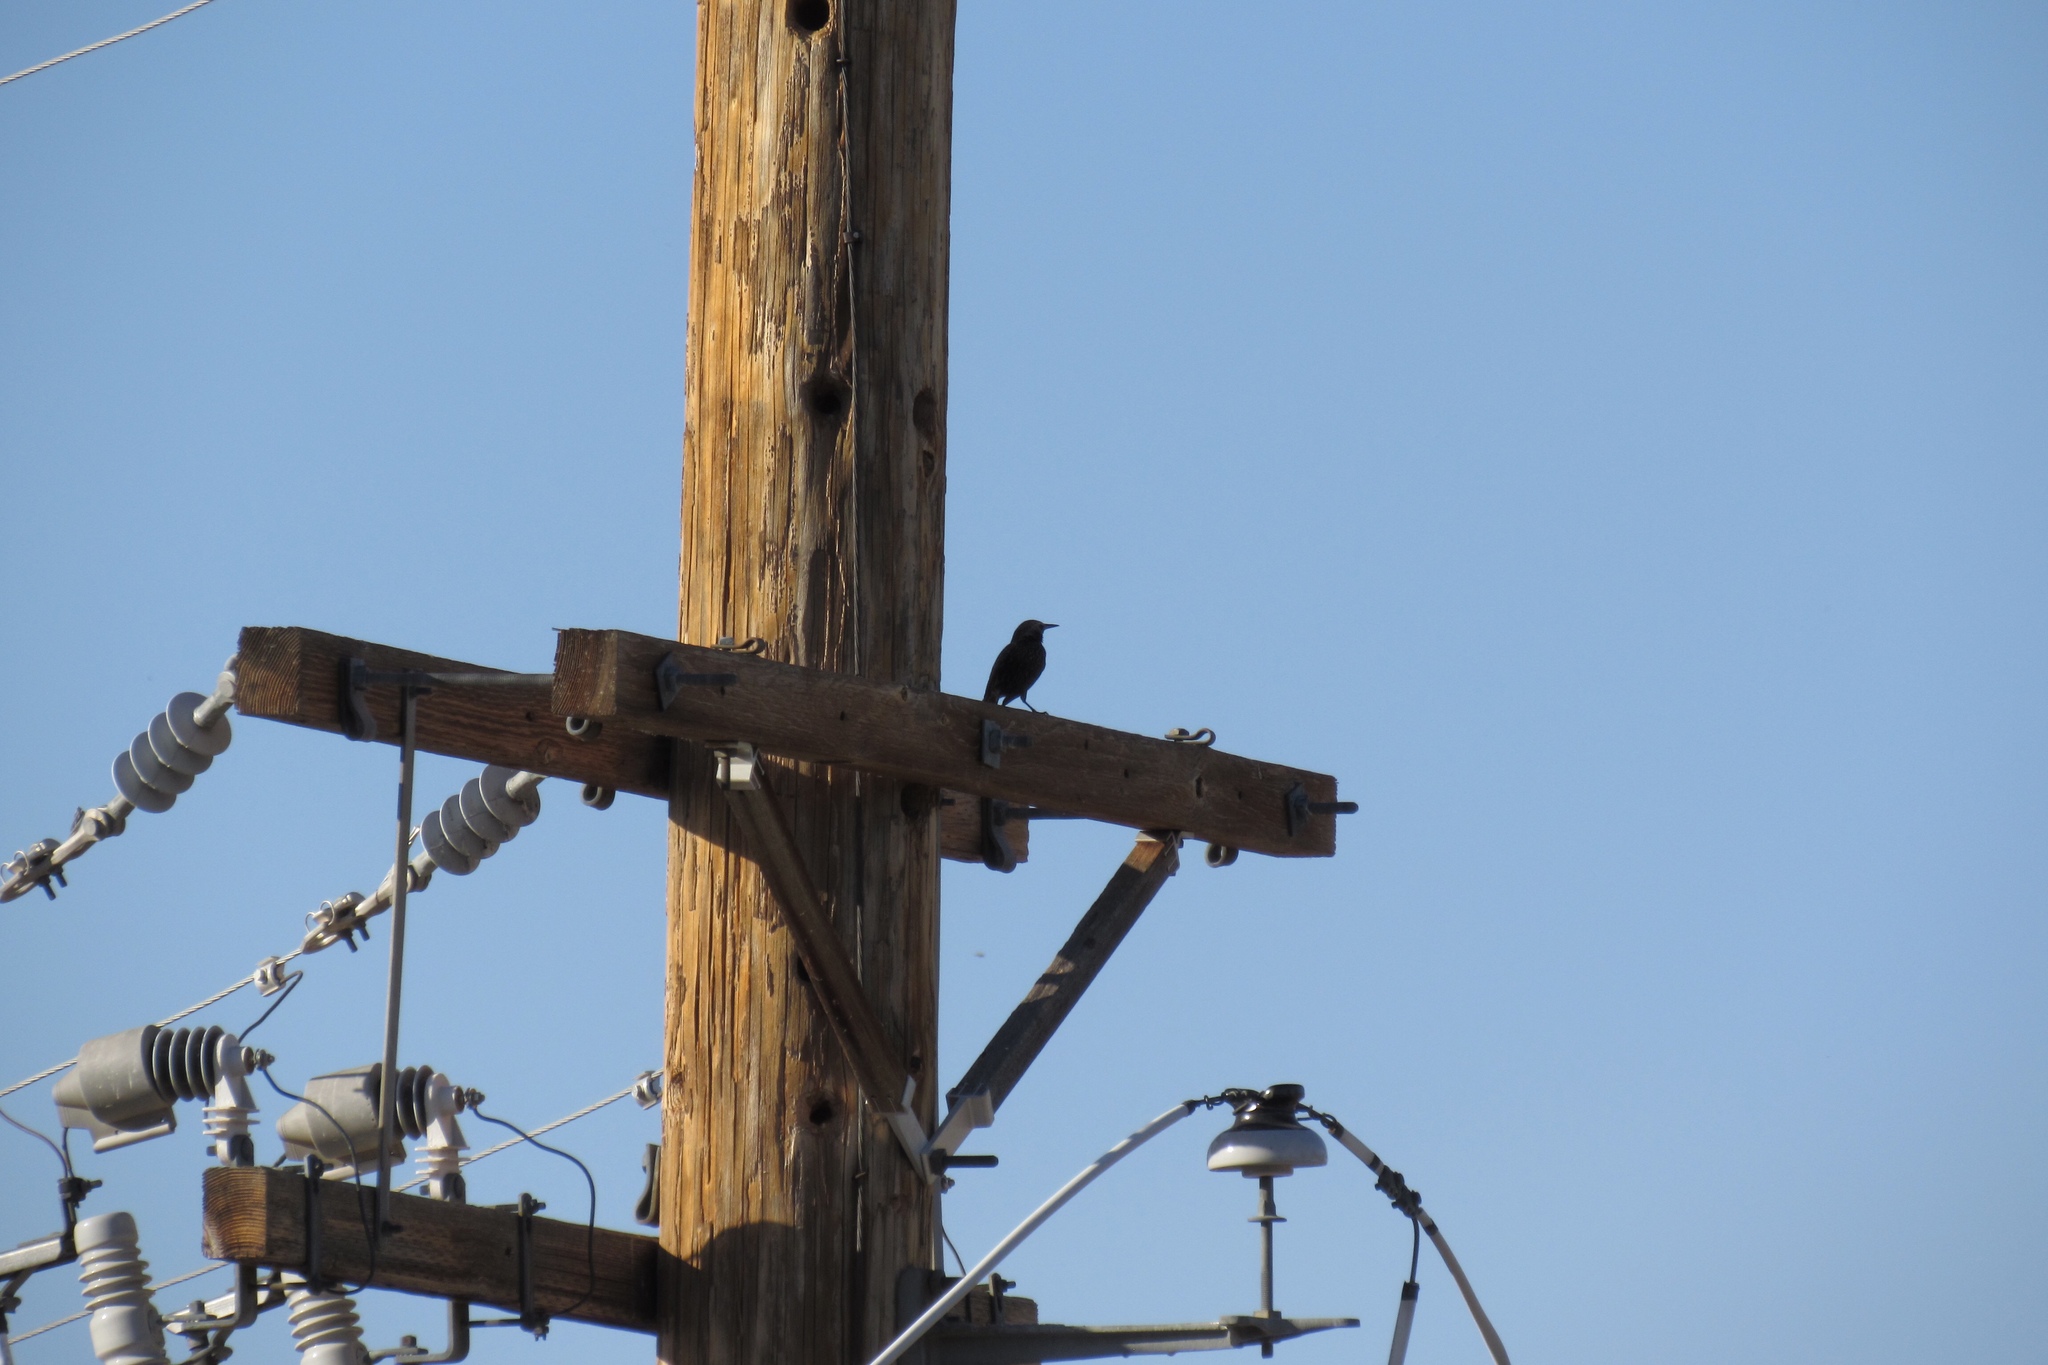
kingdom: Animalia
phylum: Chordata
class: Aves
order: Passeriformes
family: Sturnidae
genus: Sturnus
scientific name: Sturnus vulgaris
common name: Common starling
